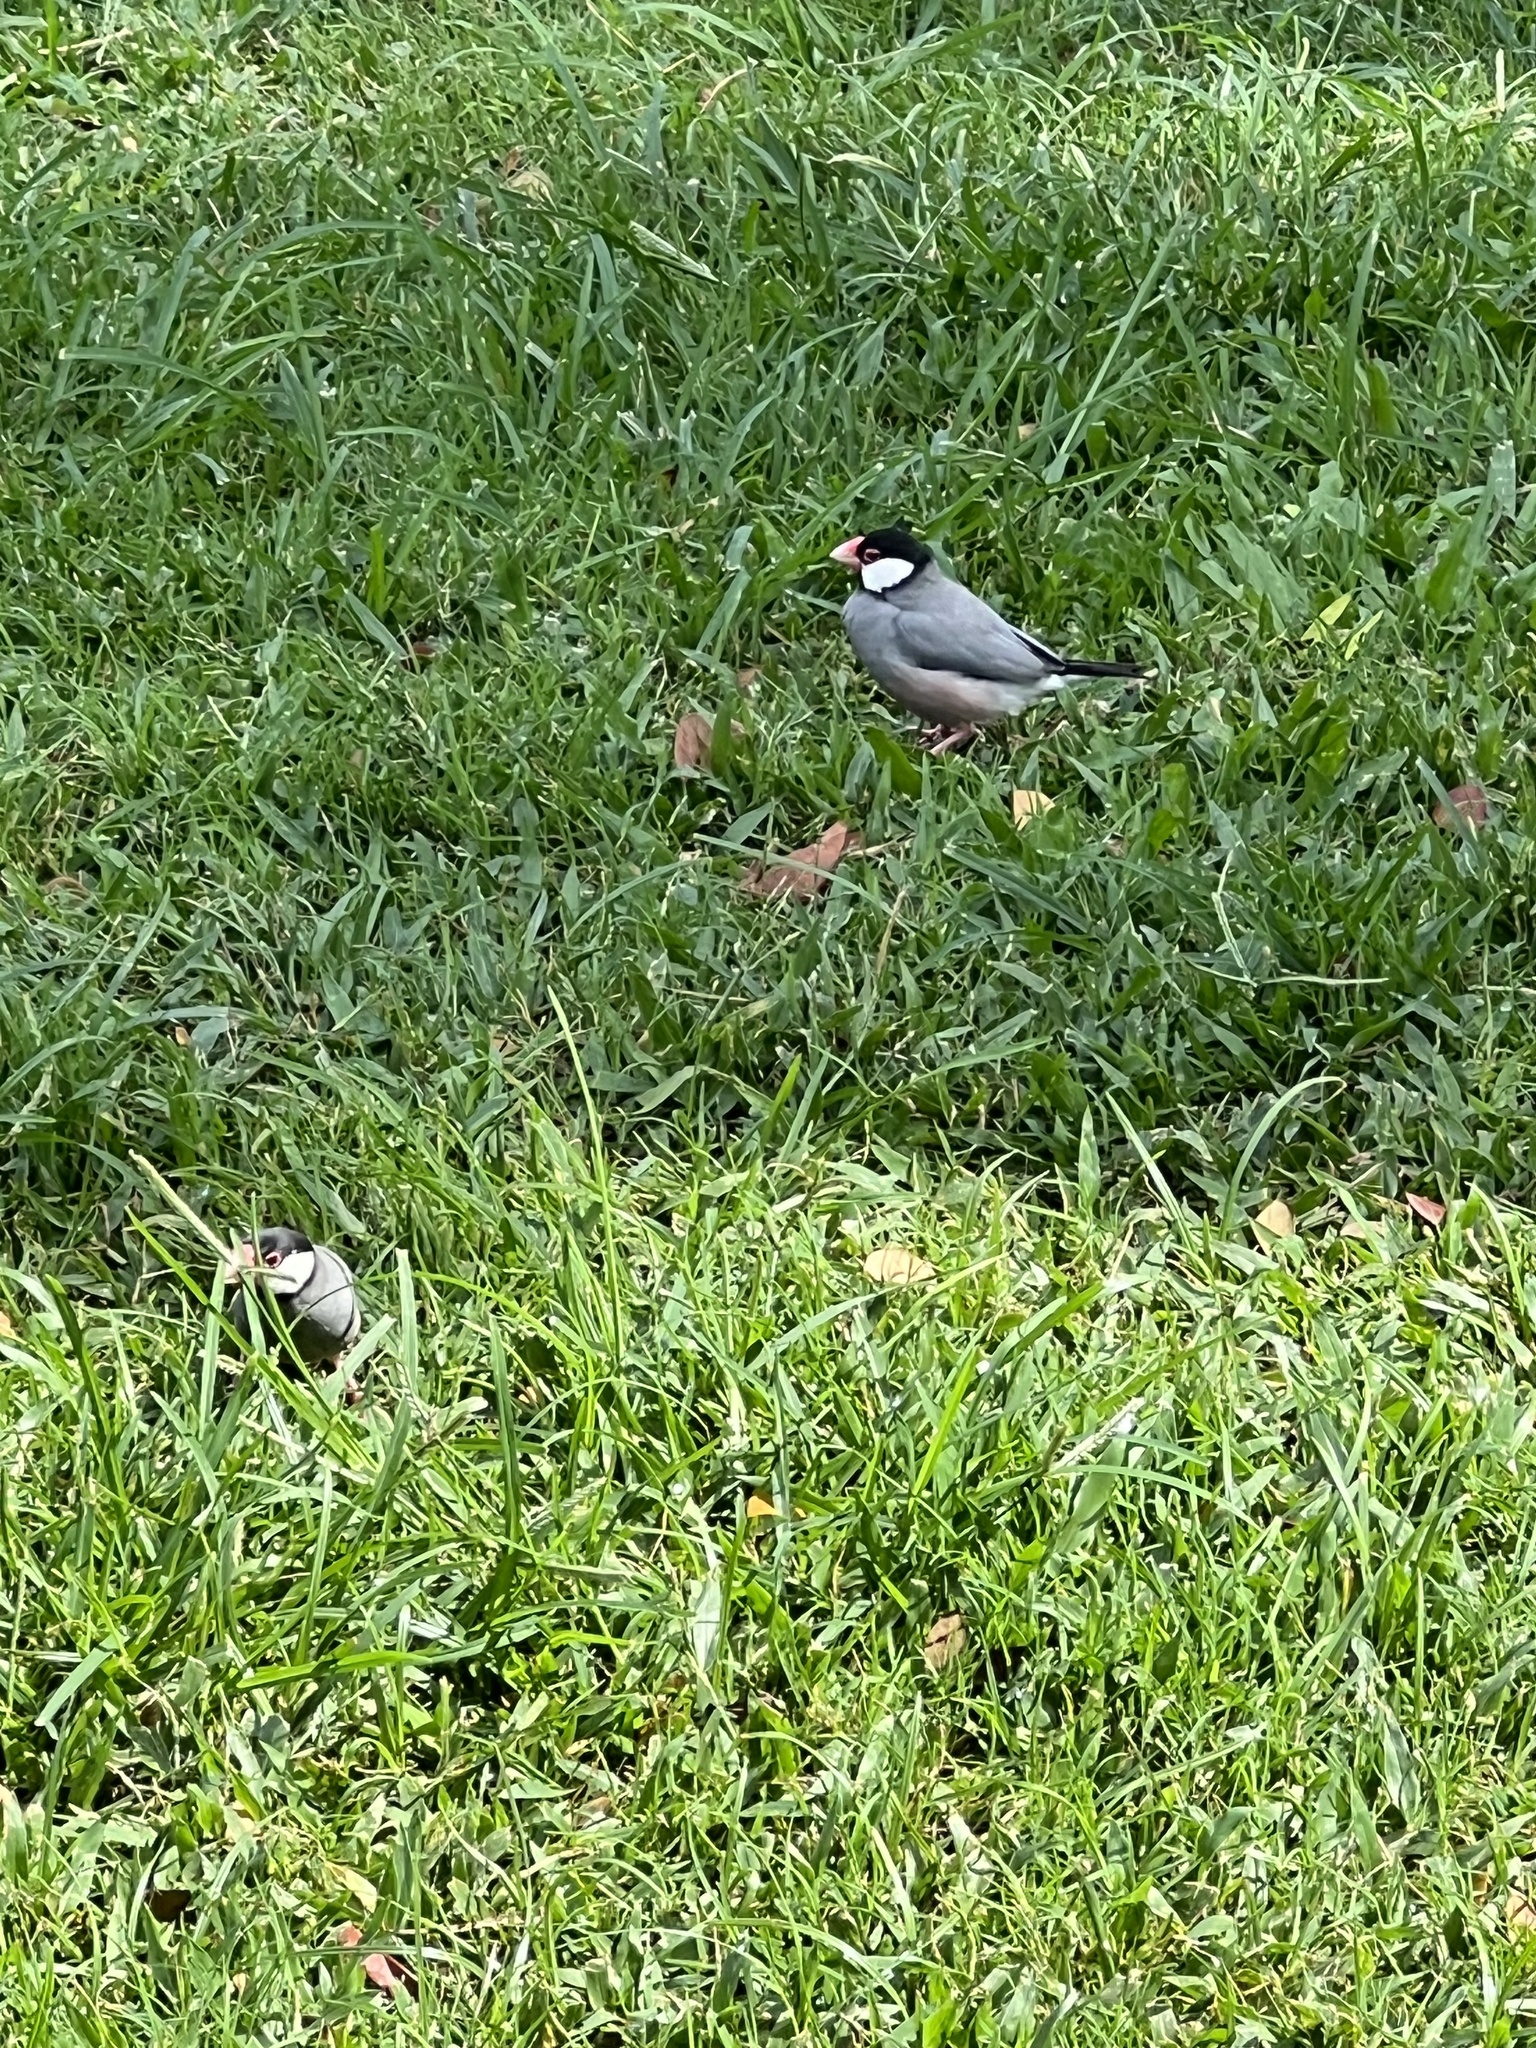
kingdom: Animalia
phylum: Chordata
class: Aves
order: Passeriformes
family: Estrildidae
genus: Lonchura
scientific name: Lonchura oryzivora
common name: Java sparrow
